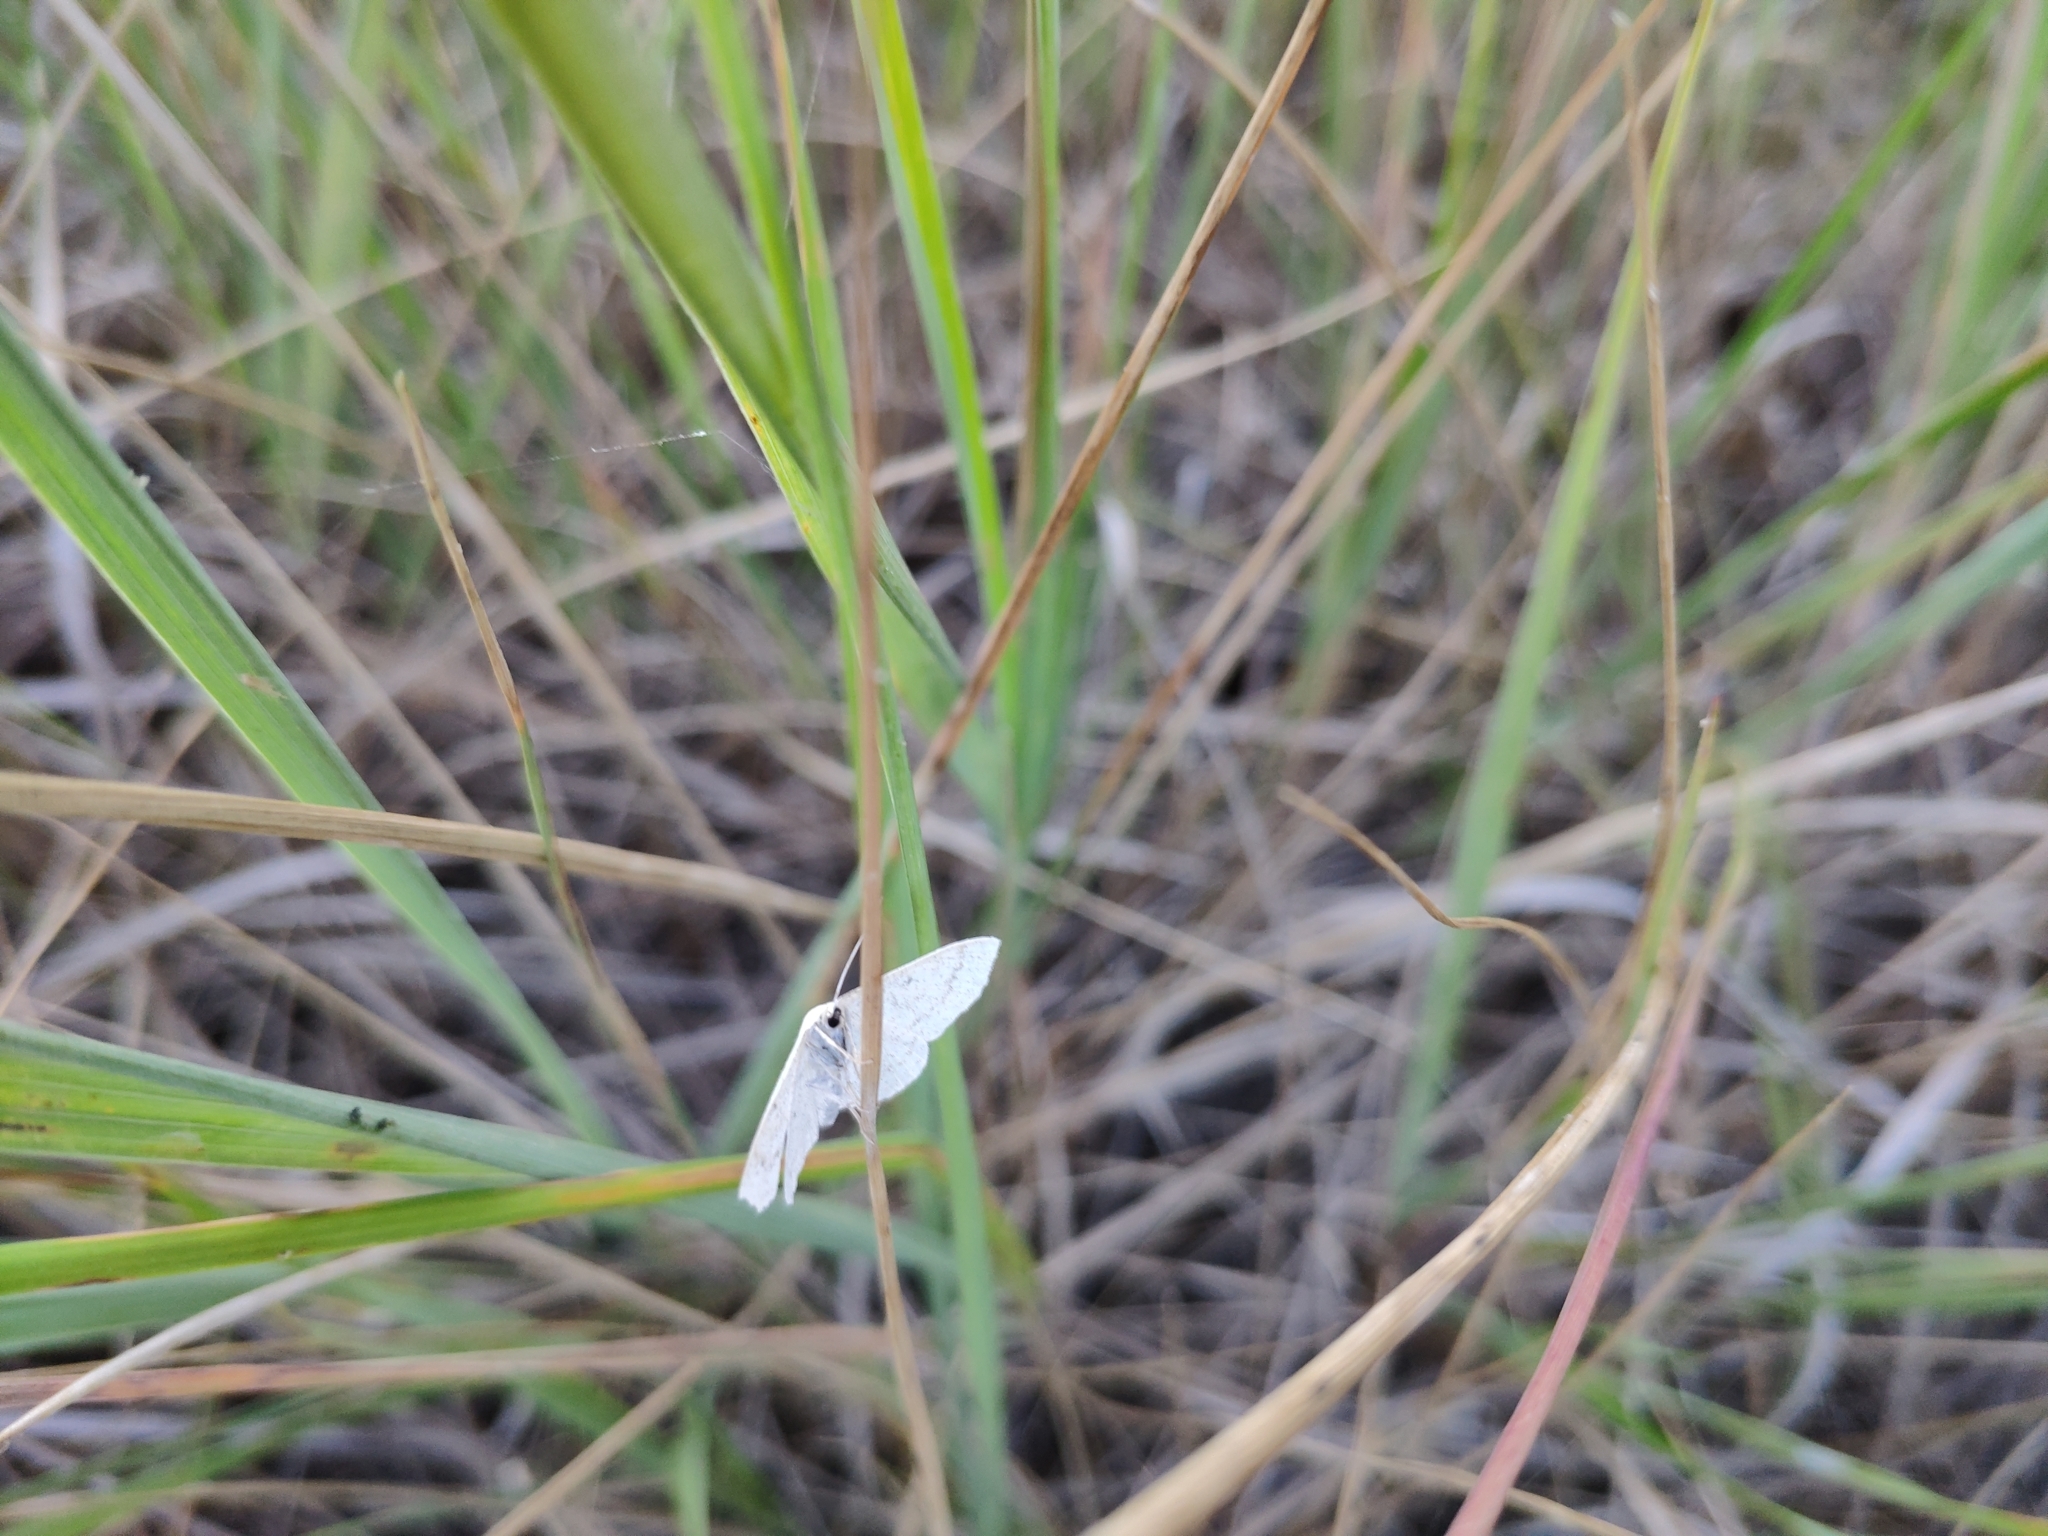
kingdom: Animalia
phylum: Arthropoda
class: Insecta
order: Lepidoptera
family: Geometridae
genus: Scopula
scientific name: Scopula immutata
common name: Lesser cream wave
